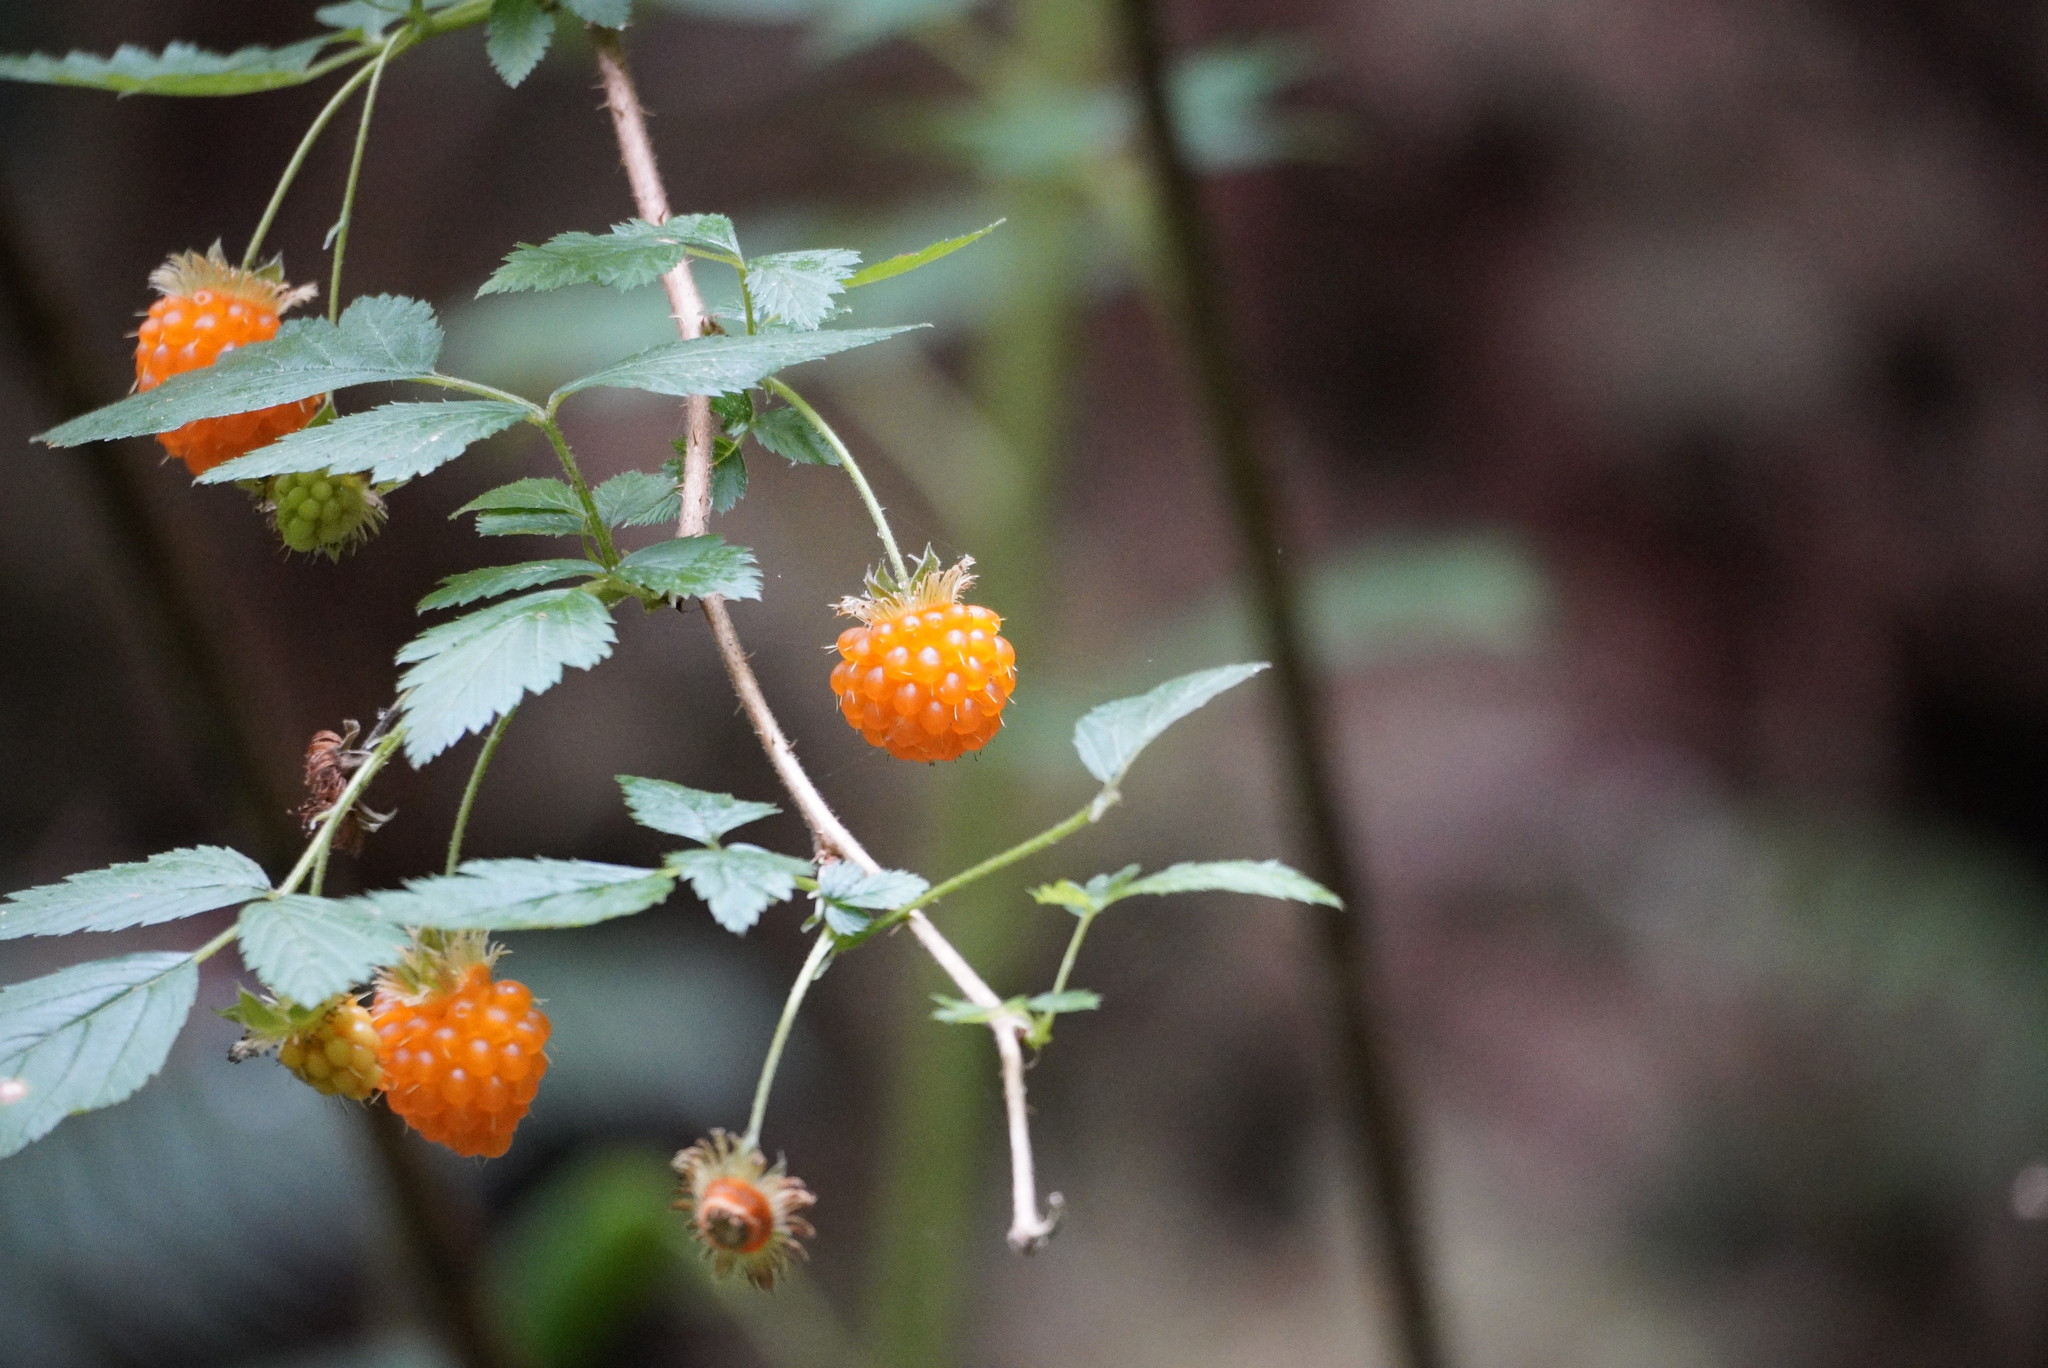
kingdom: Plantae
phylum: Tracheophyta
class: Magnoliopsida
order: Rosales
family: Rosaceae
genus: Rubus
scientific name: Rubus spectabilis
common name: Salmonberry
